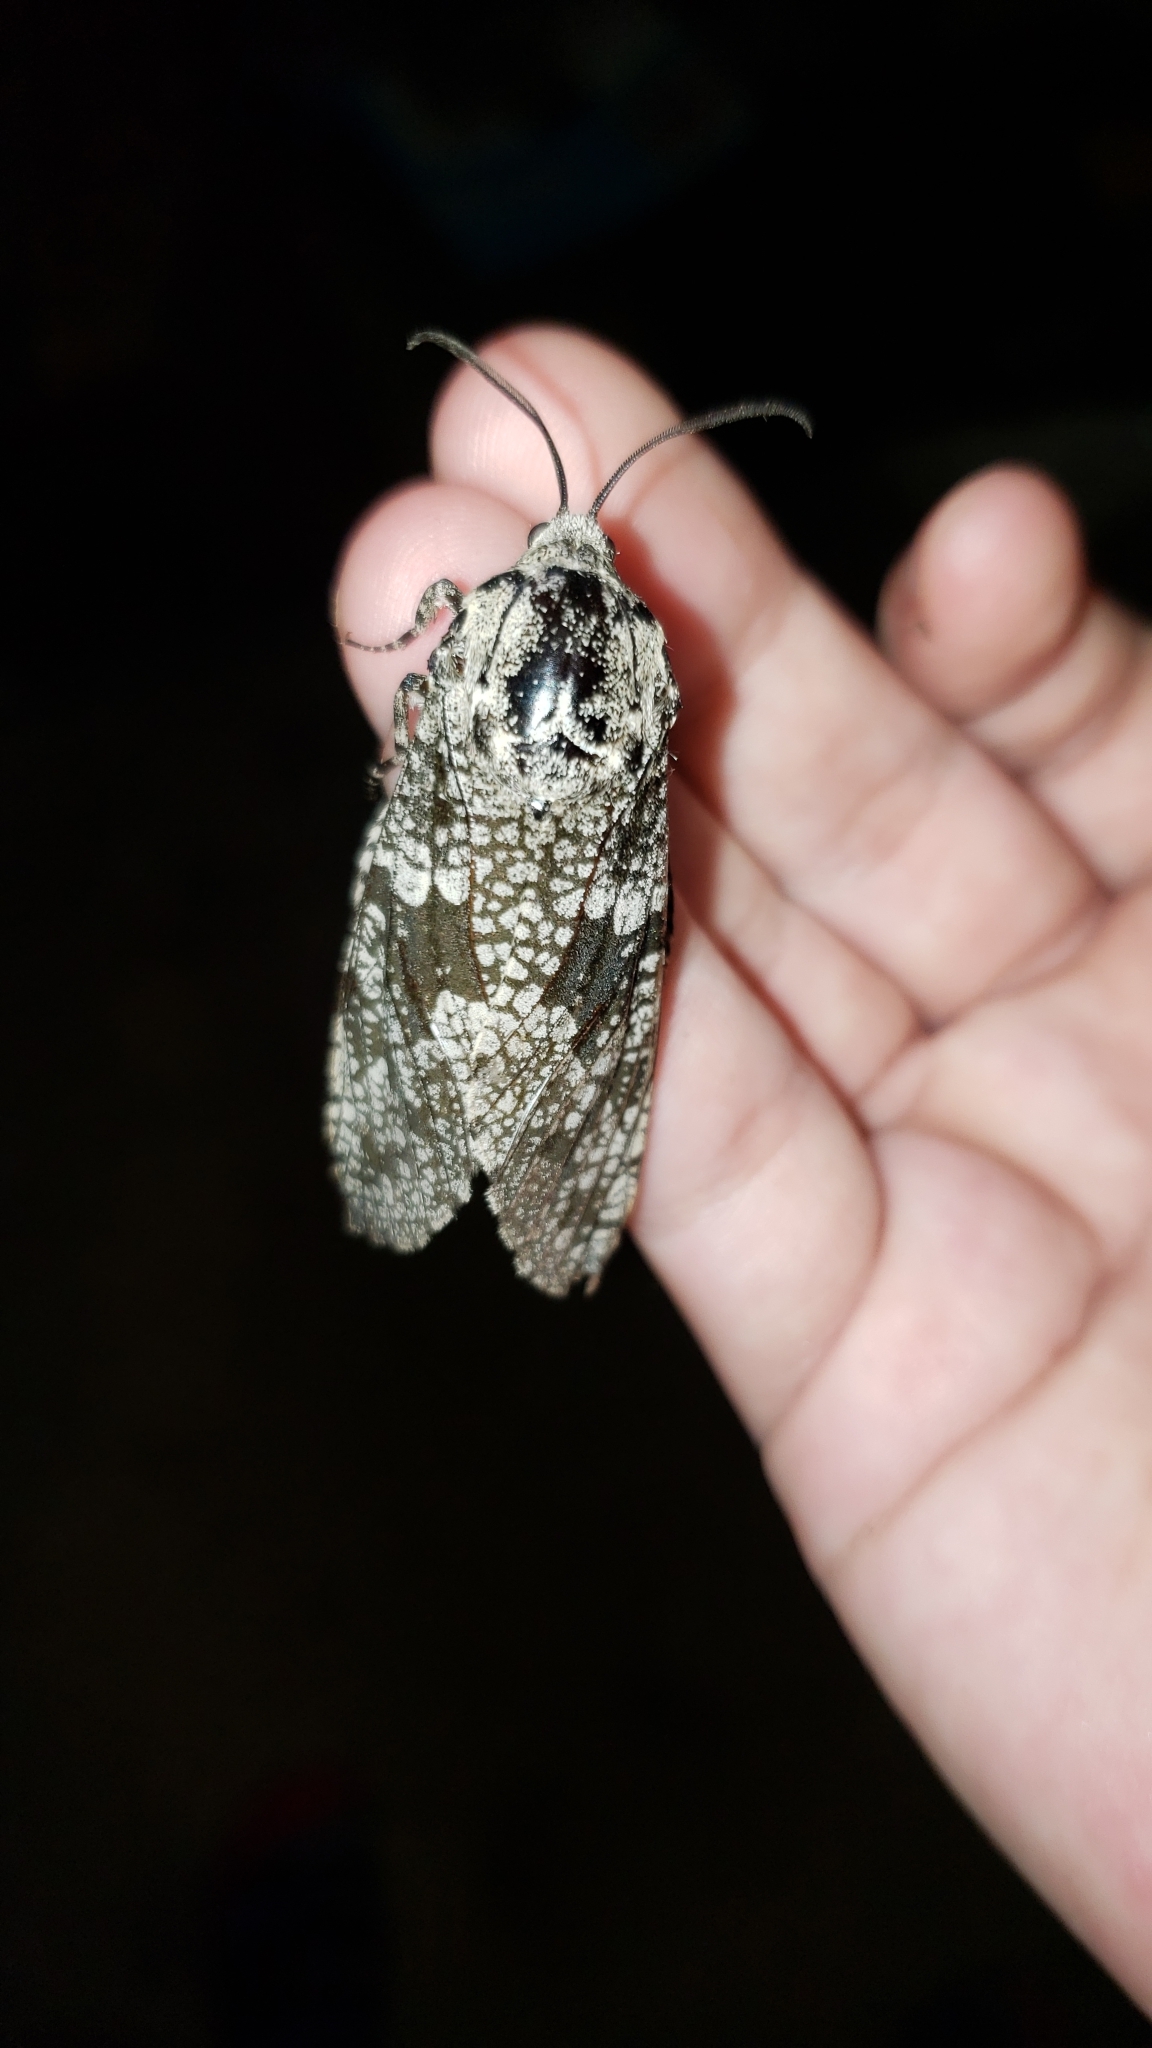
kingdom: Animalia
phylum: Arthropoda
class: Insecta
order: Lepidoptera
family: Cossidae
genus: Prionoxystus
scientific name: Prionoxystus robiniae
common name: Carpenterworm
